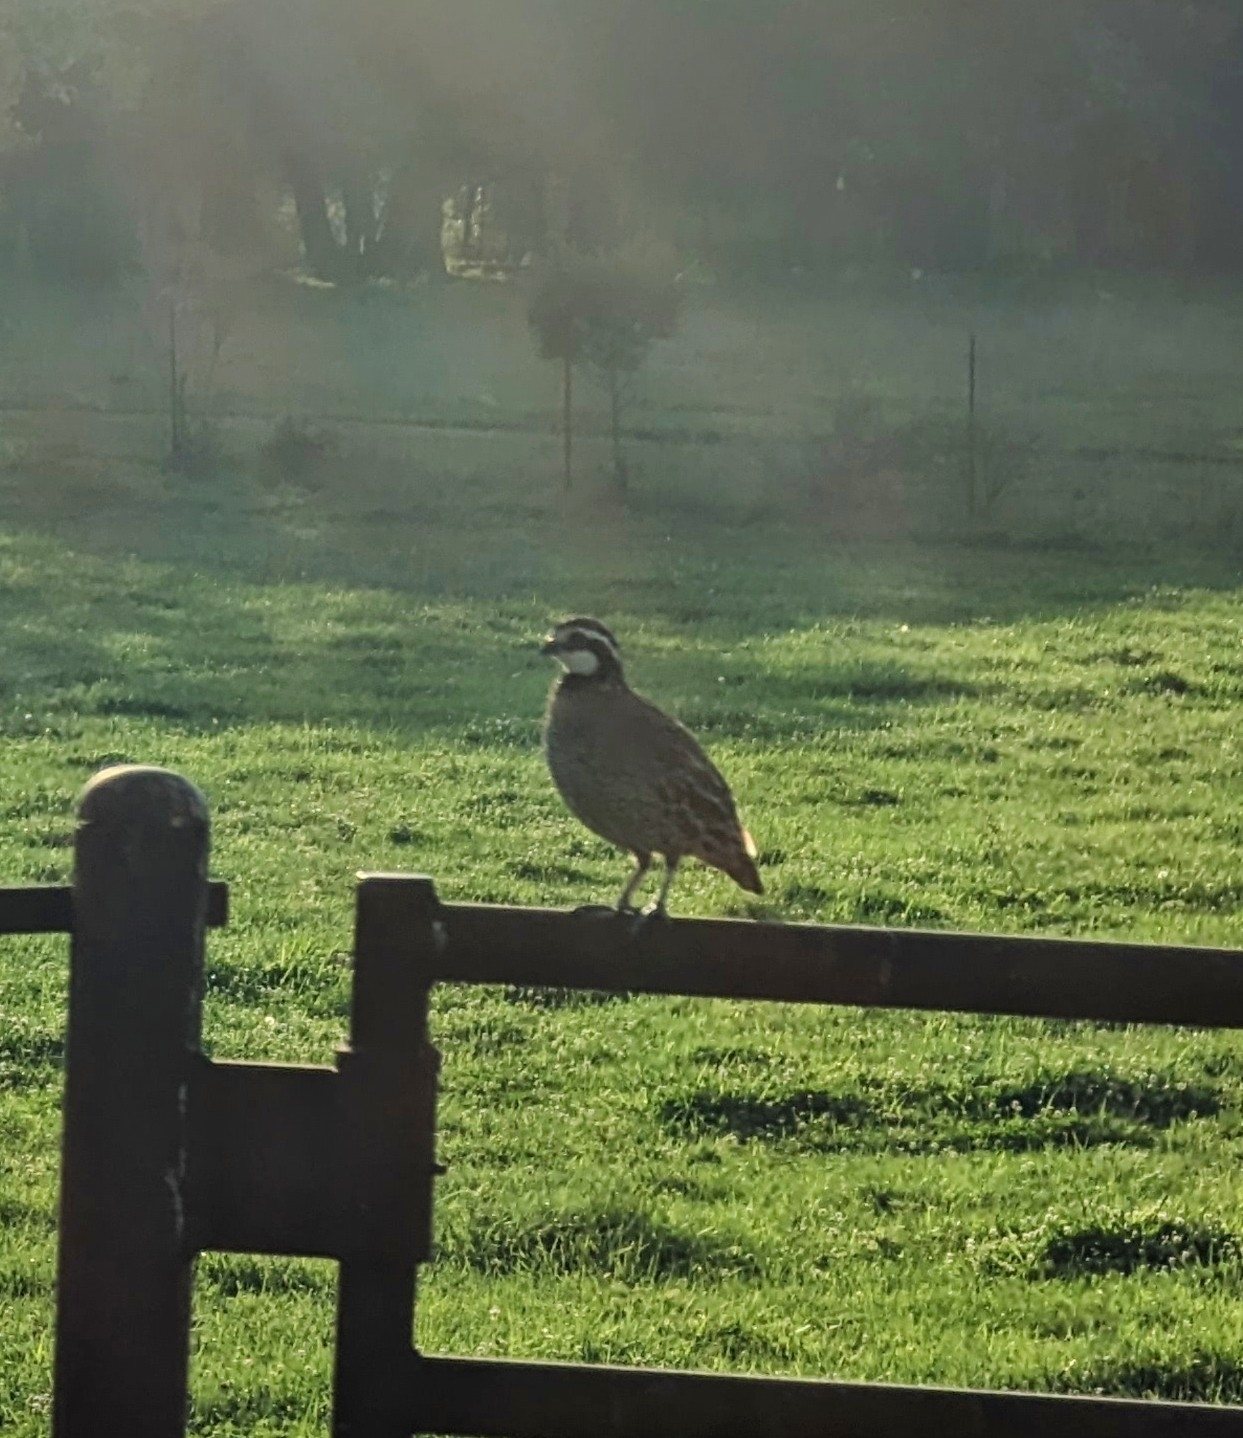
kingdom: Animalia
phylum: Chordata
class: Aves
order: Galliformes
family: Odontophoridae
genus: Colinus
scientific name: Colinus virginianus
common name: Northern bobwhite
